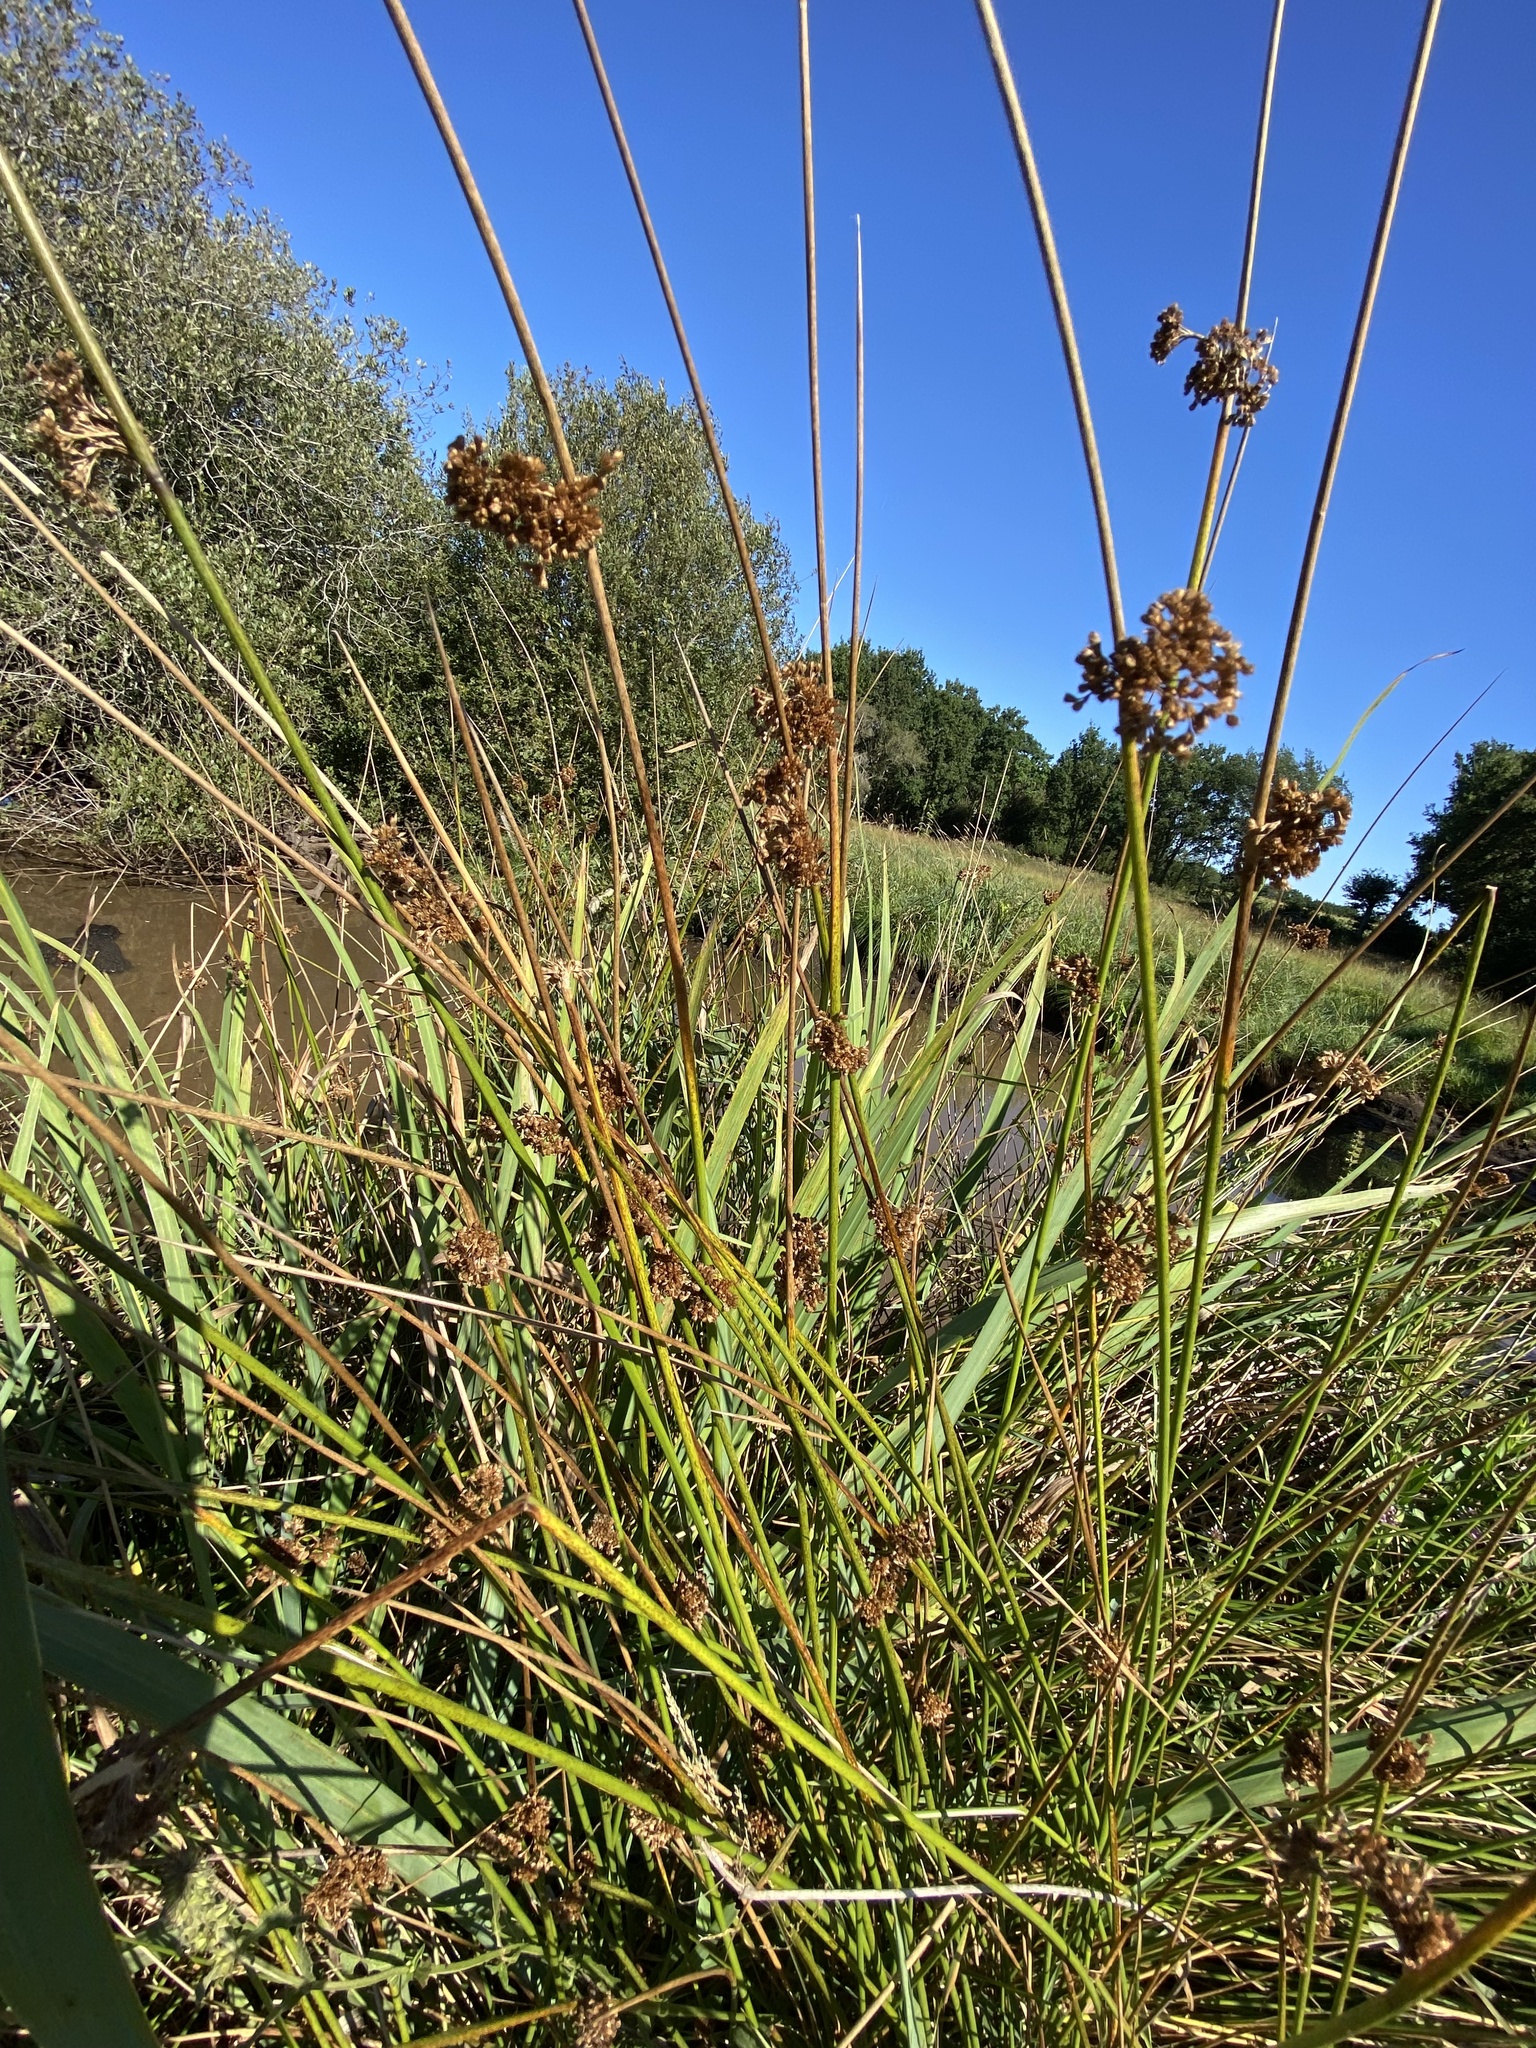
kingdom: Plantae
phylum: Tracheophyta
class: Liliopsida
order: Poales
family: Juncaceae
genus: Juncus
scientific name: Juncus effusus
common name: Soft rush
